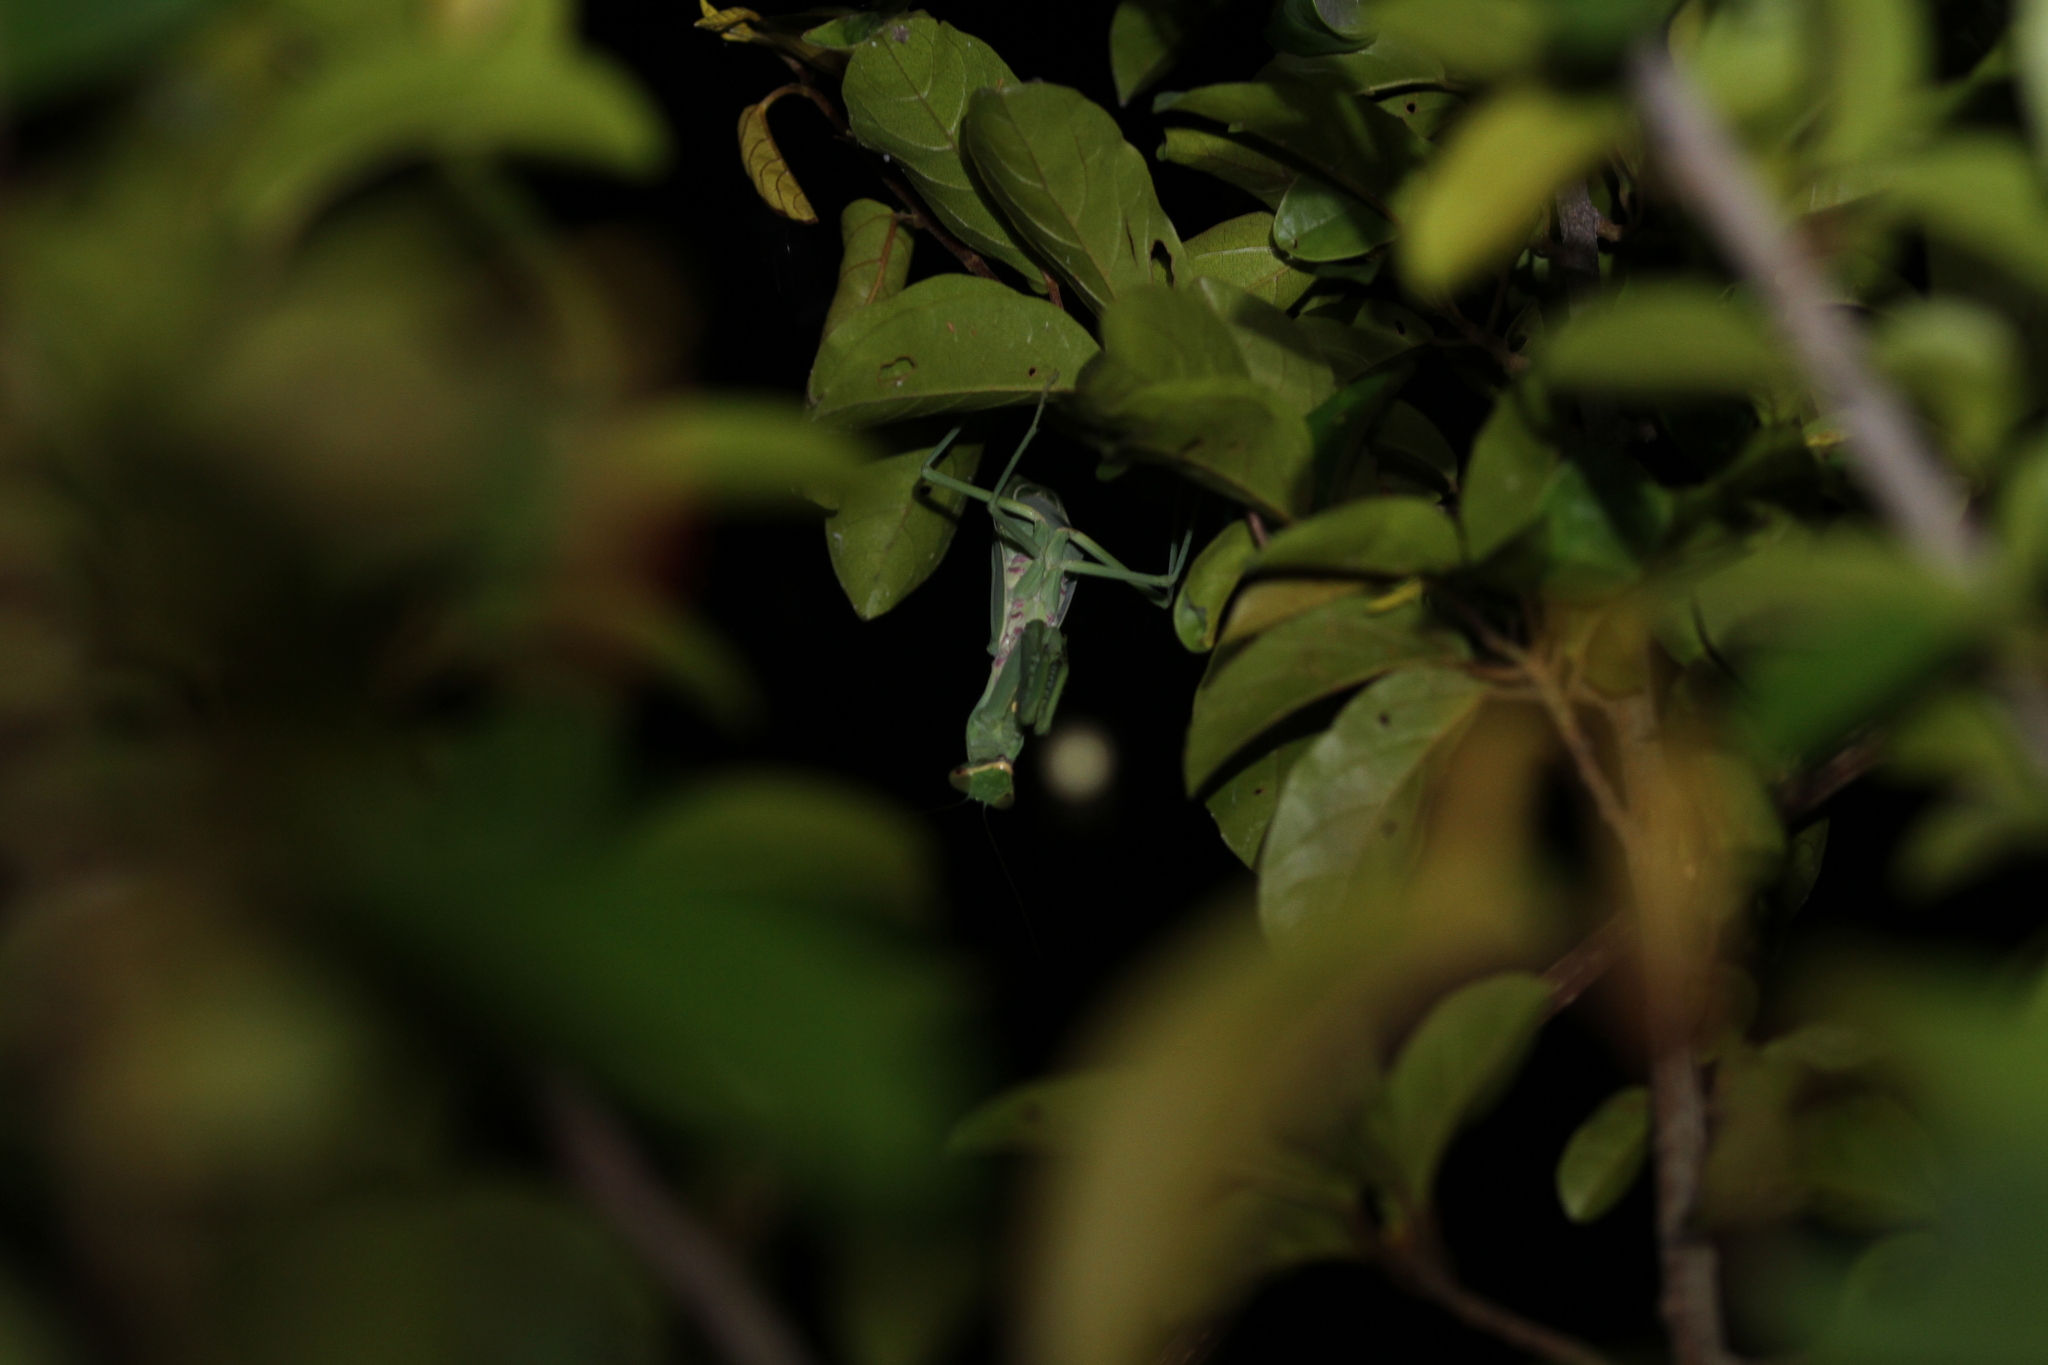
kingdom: Animalia
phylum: Arthropoda
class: Insecta
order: Mantodea
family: Mantidae
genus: Hierodula
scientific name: Hierodula patellifera
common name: Asian mantis
